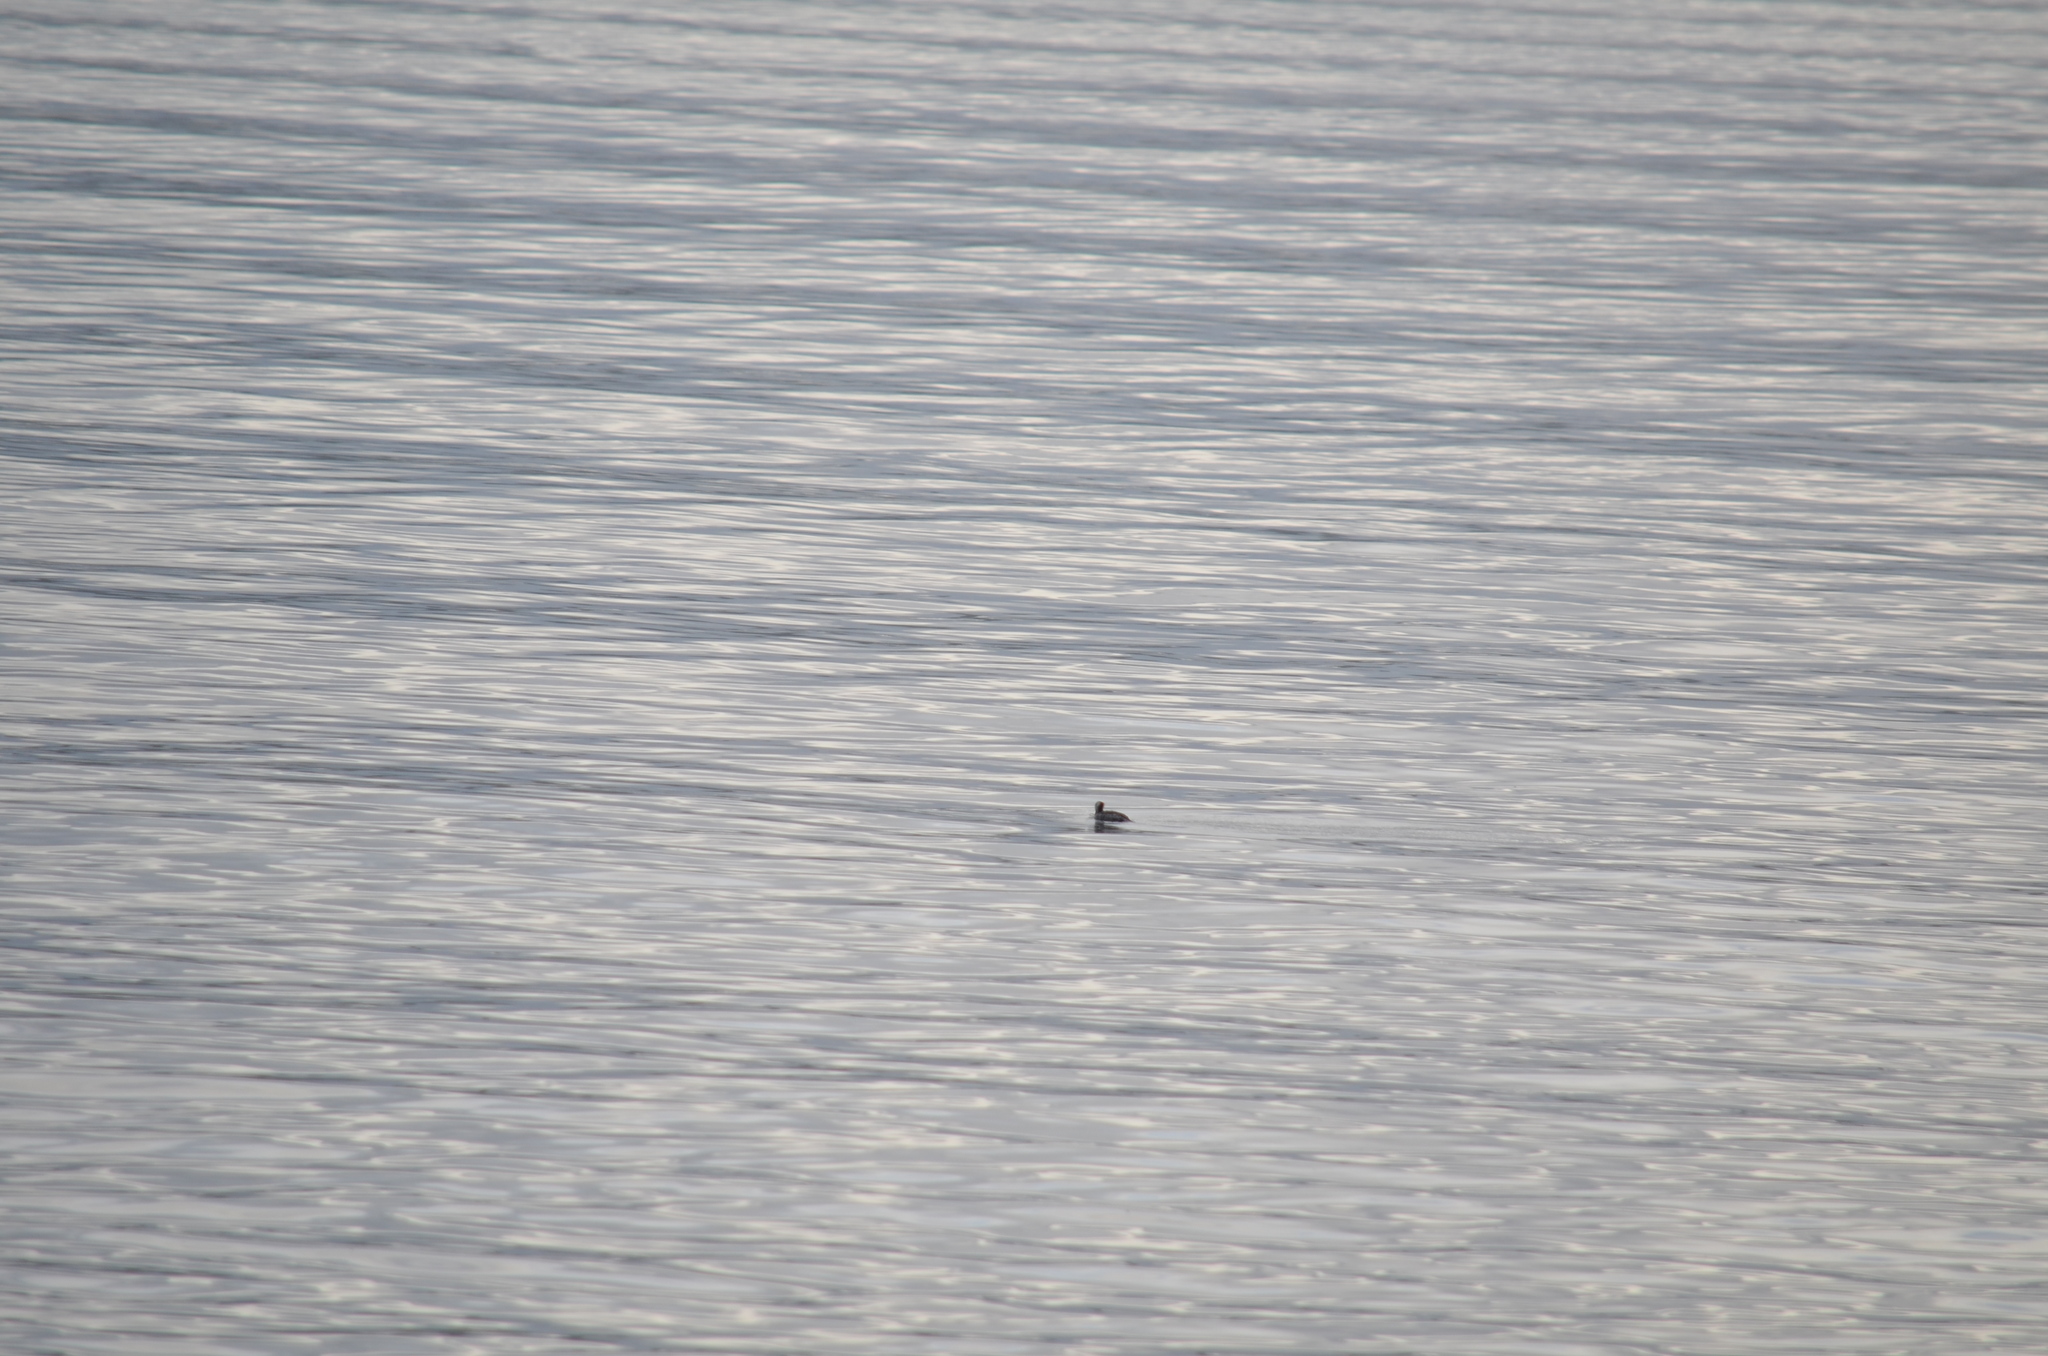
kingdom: Animalia
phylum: Chordata
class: Aves
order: Podicipediformes
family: Podicipedidae
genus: Podiceps
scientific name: Podiceps auritus
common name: Horned grebe
